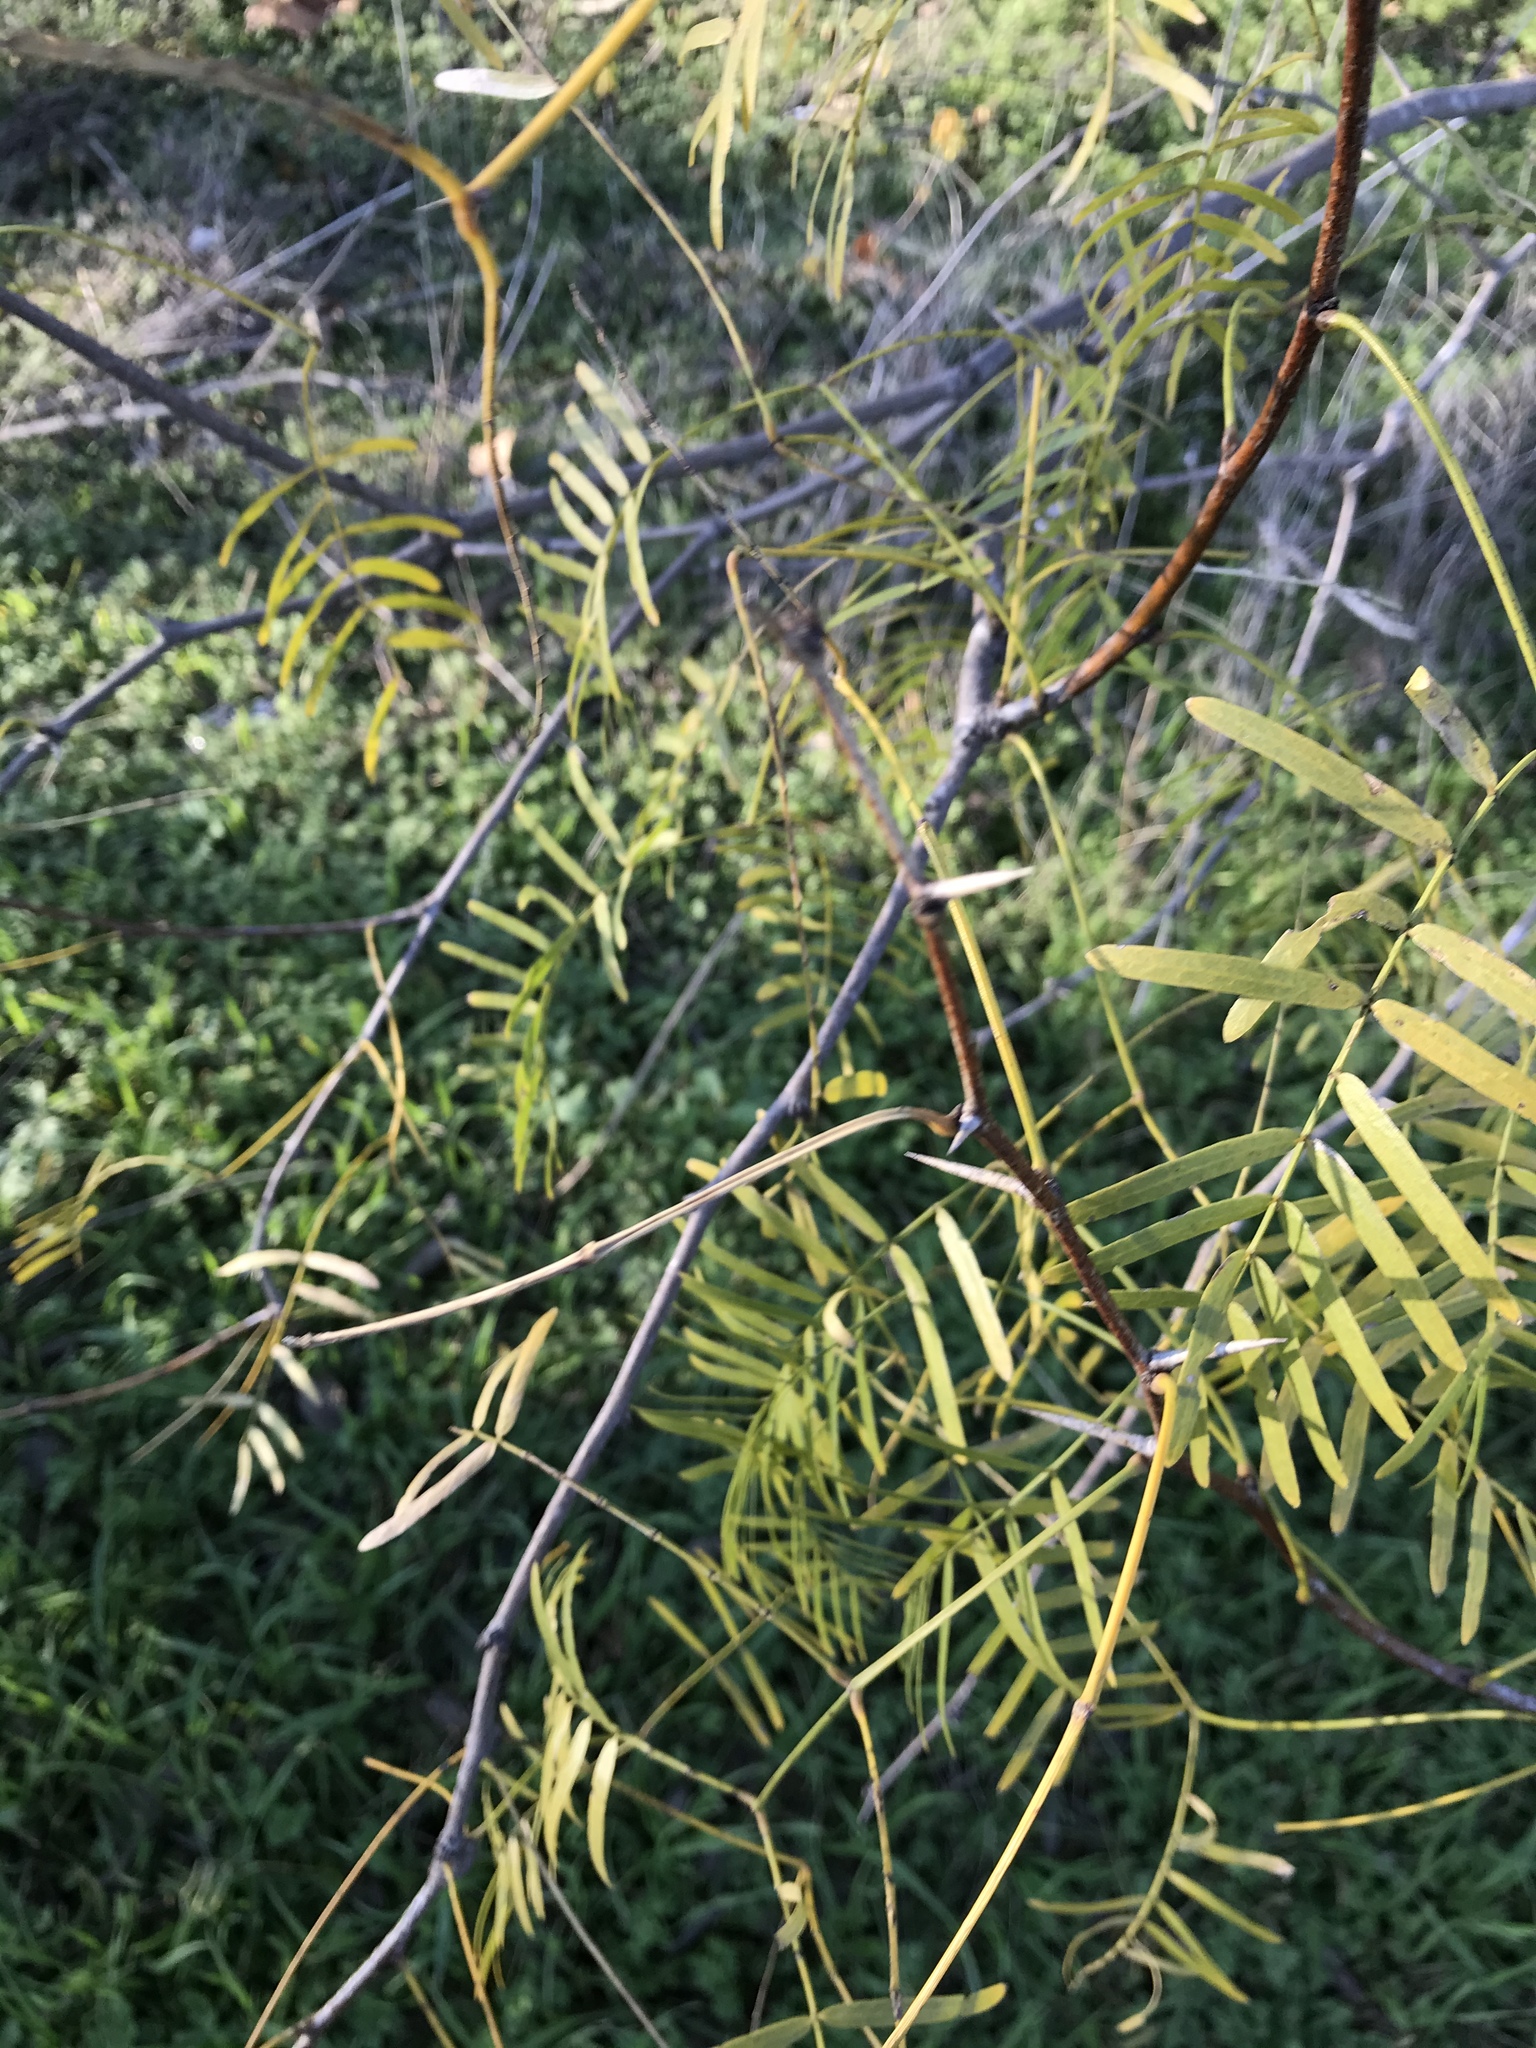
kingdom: Plantae
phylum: Tracheophyta
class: Magnoliopsida
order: Fabales
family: Fabaceae
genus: Prosopis
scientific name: Prosopis glandulosa
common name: Honey mesquite
